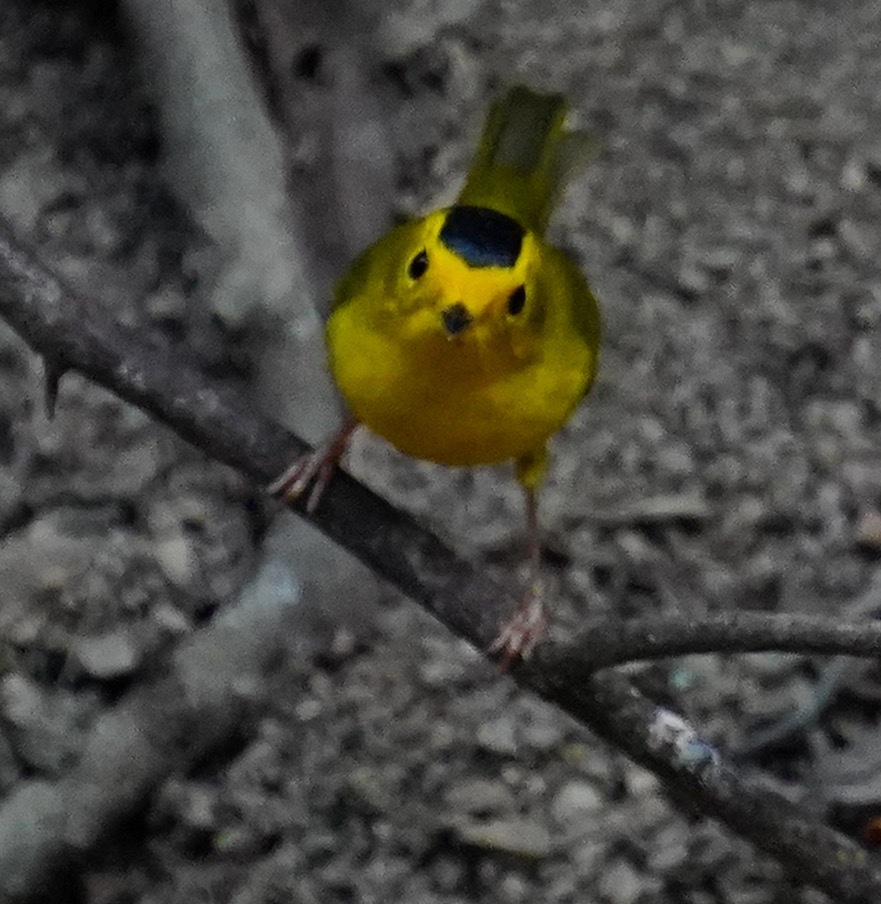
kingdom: Animalia
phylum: Chordata
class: Aves
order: Passeriformes
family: Parulidae
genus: Cardellina
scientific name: Cardellina pusilla
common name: Wilson's warbler
